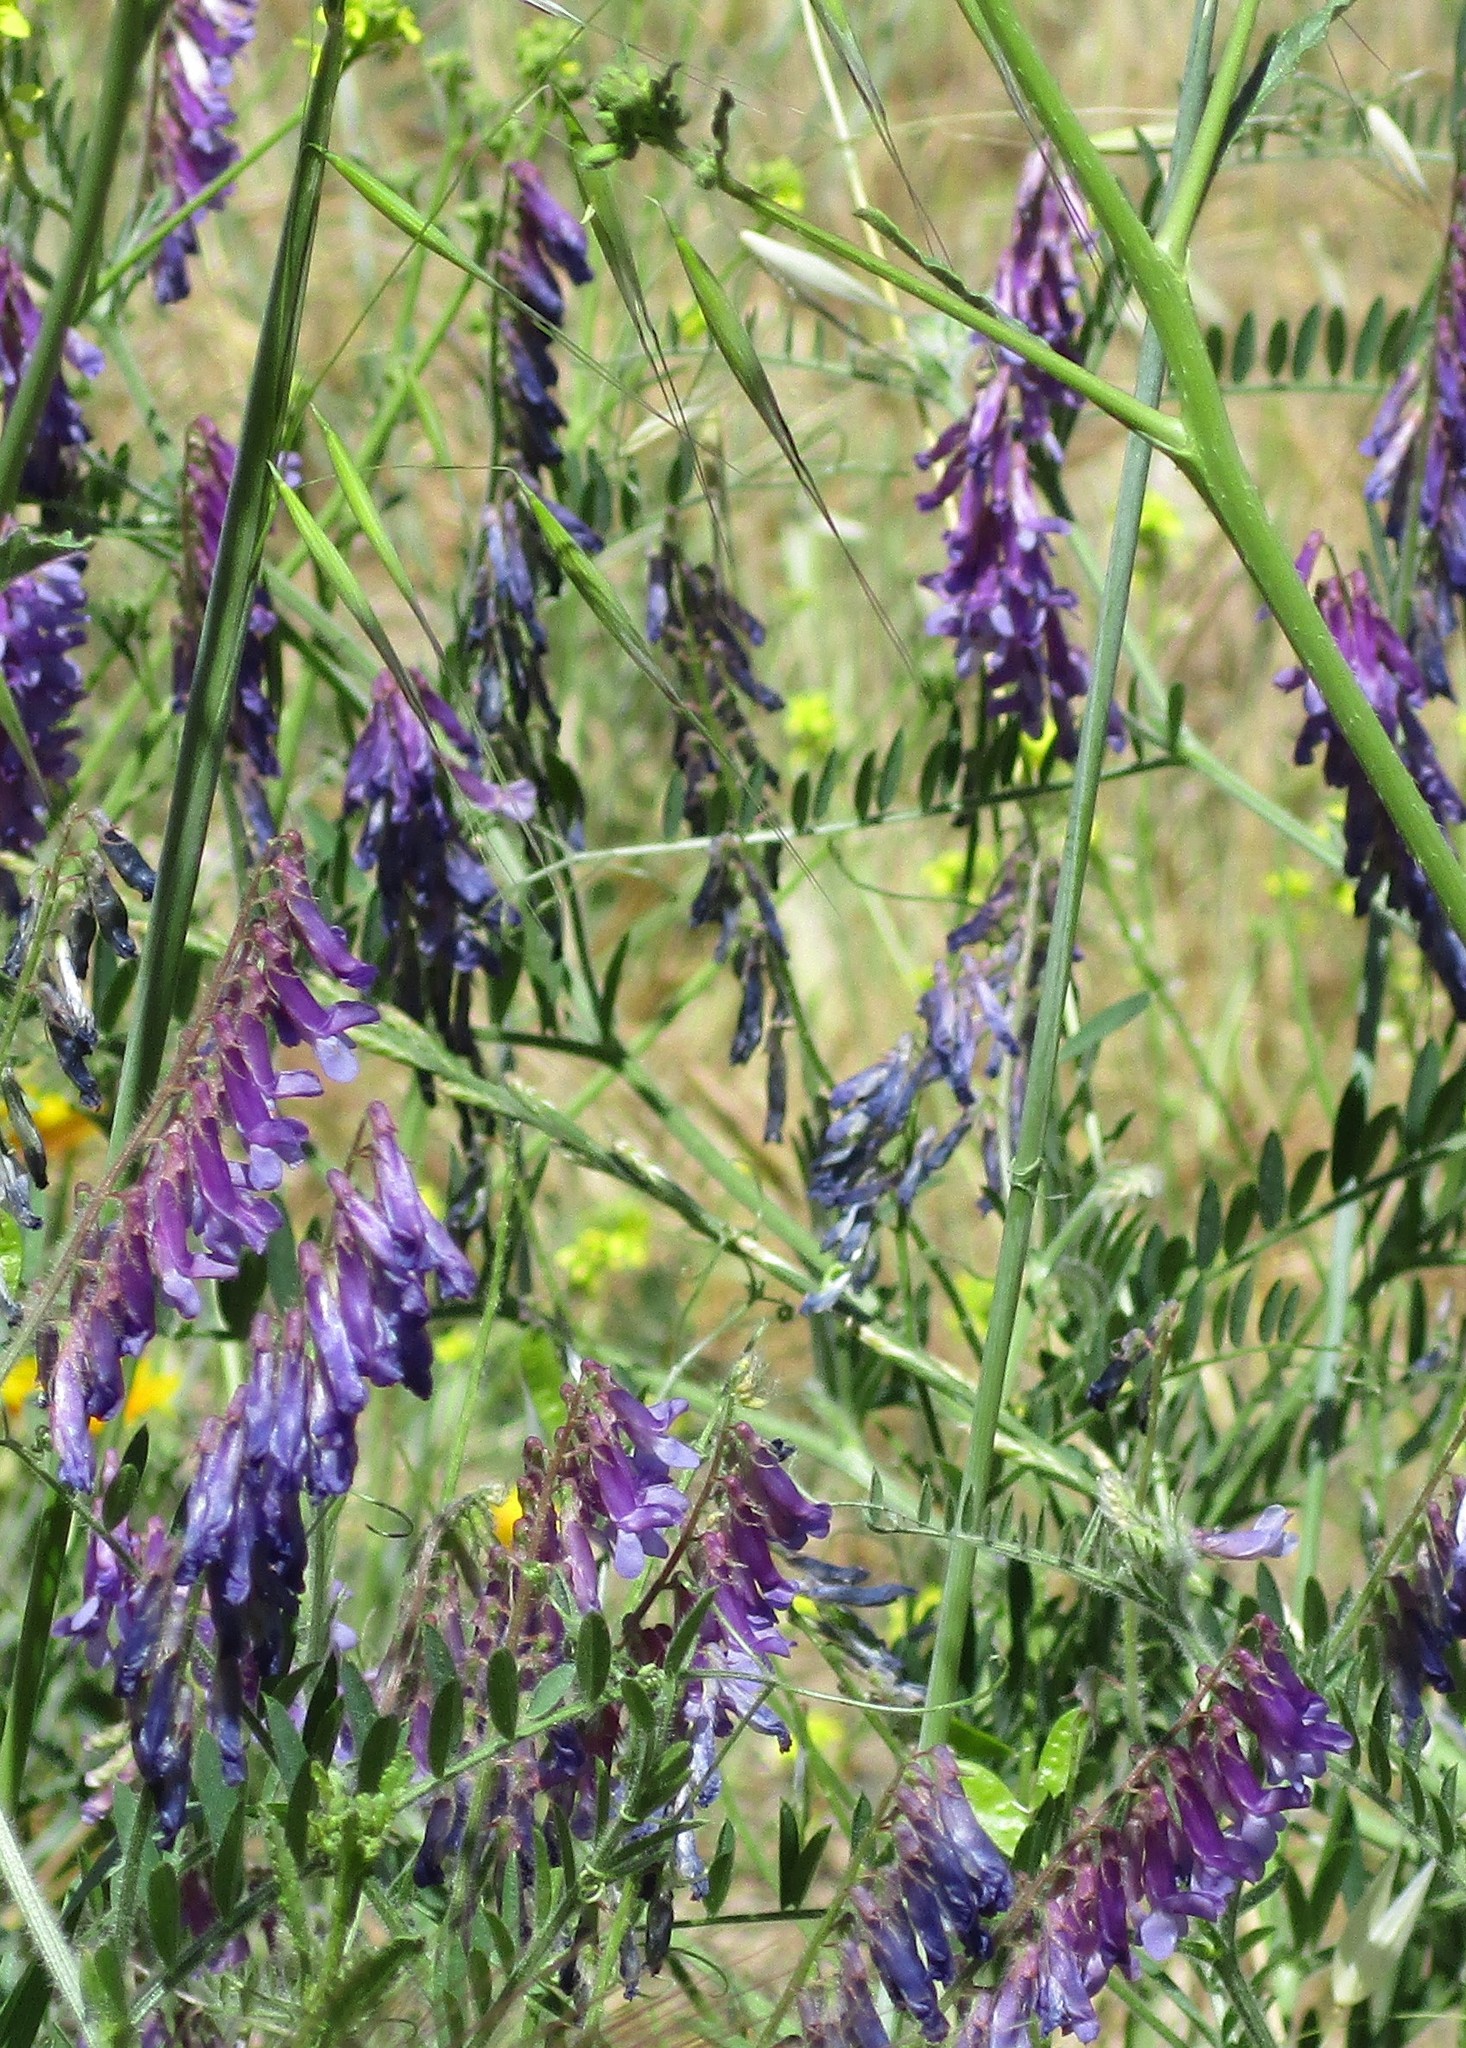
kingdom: Plantae
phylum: Tracheophyta
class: Magnoliopsida
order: Fabales
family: Fabaceae
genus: Vicia
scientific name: Vicia villosa
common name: Fodder vetch
